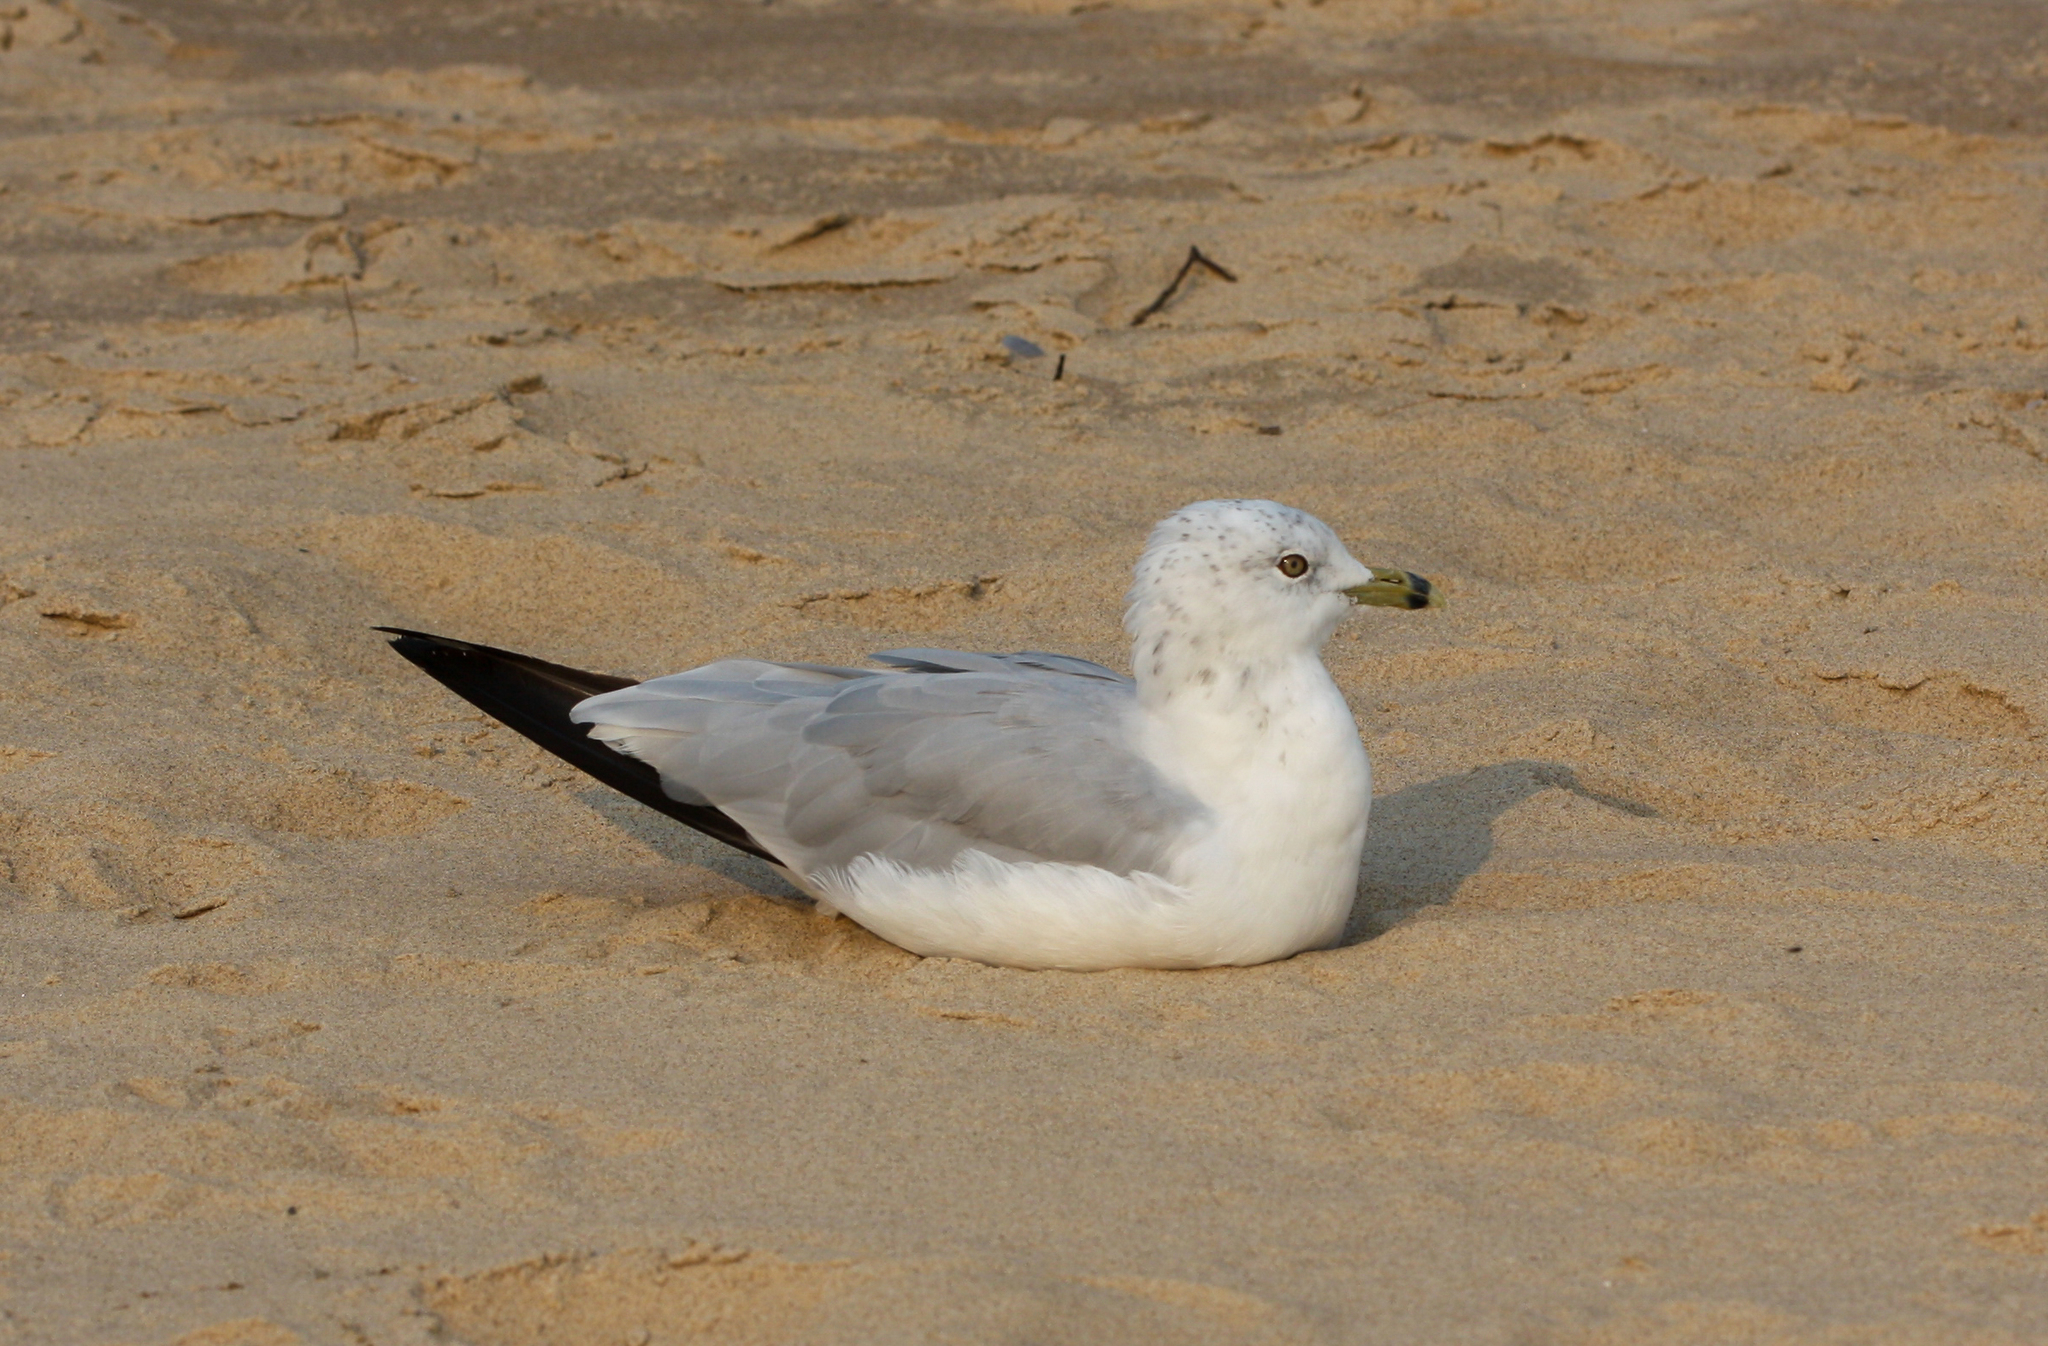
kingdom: Animalia
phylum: Chordata
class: Aves
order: Charadriiformes
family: Laridae
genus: Larus
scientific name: Larus delawarensis
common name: Ring-billed gull
